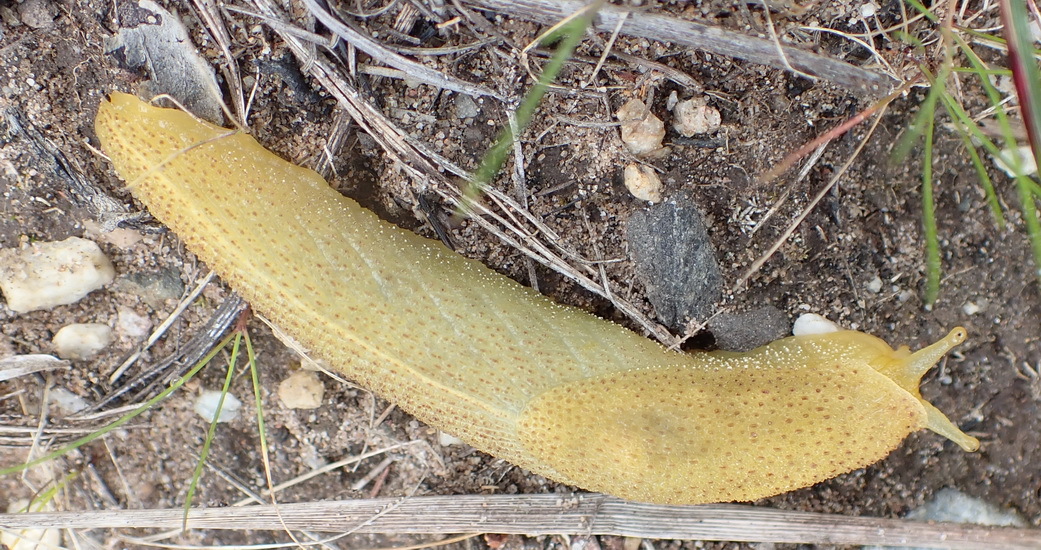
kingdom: Animalia
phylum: Mollusca
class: Gastropoda
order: Stylommatophora
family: Oopeltidae
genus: Oopelta
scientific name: Oopelta capensis
